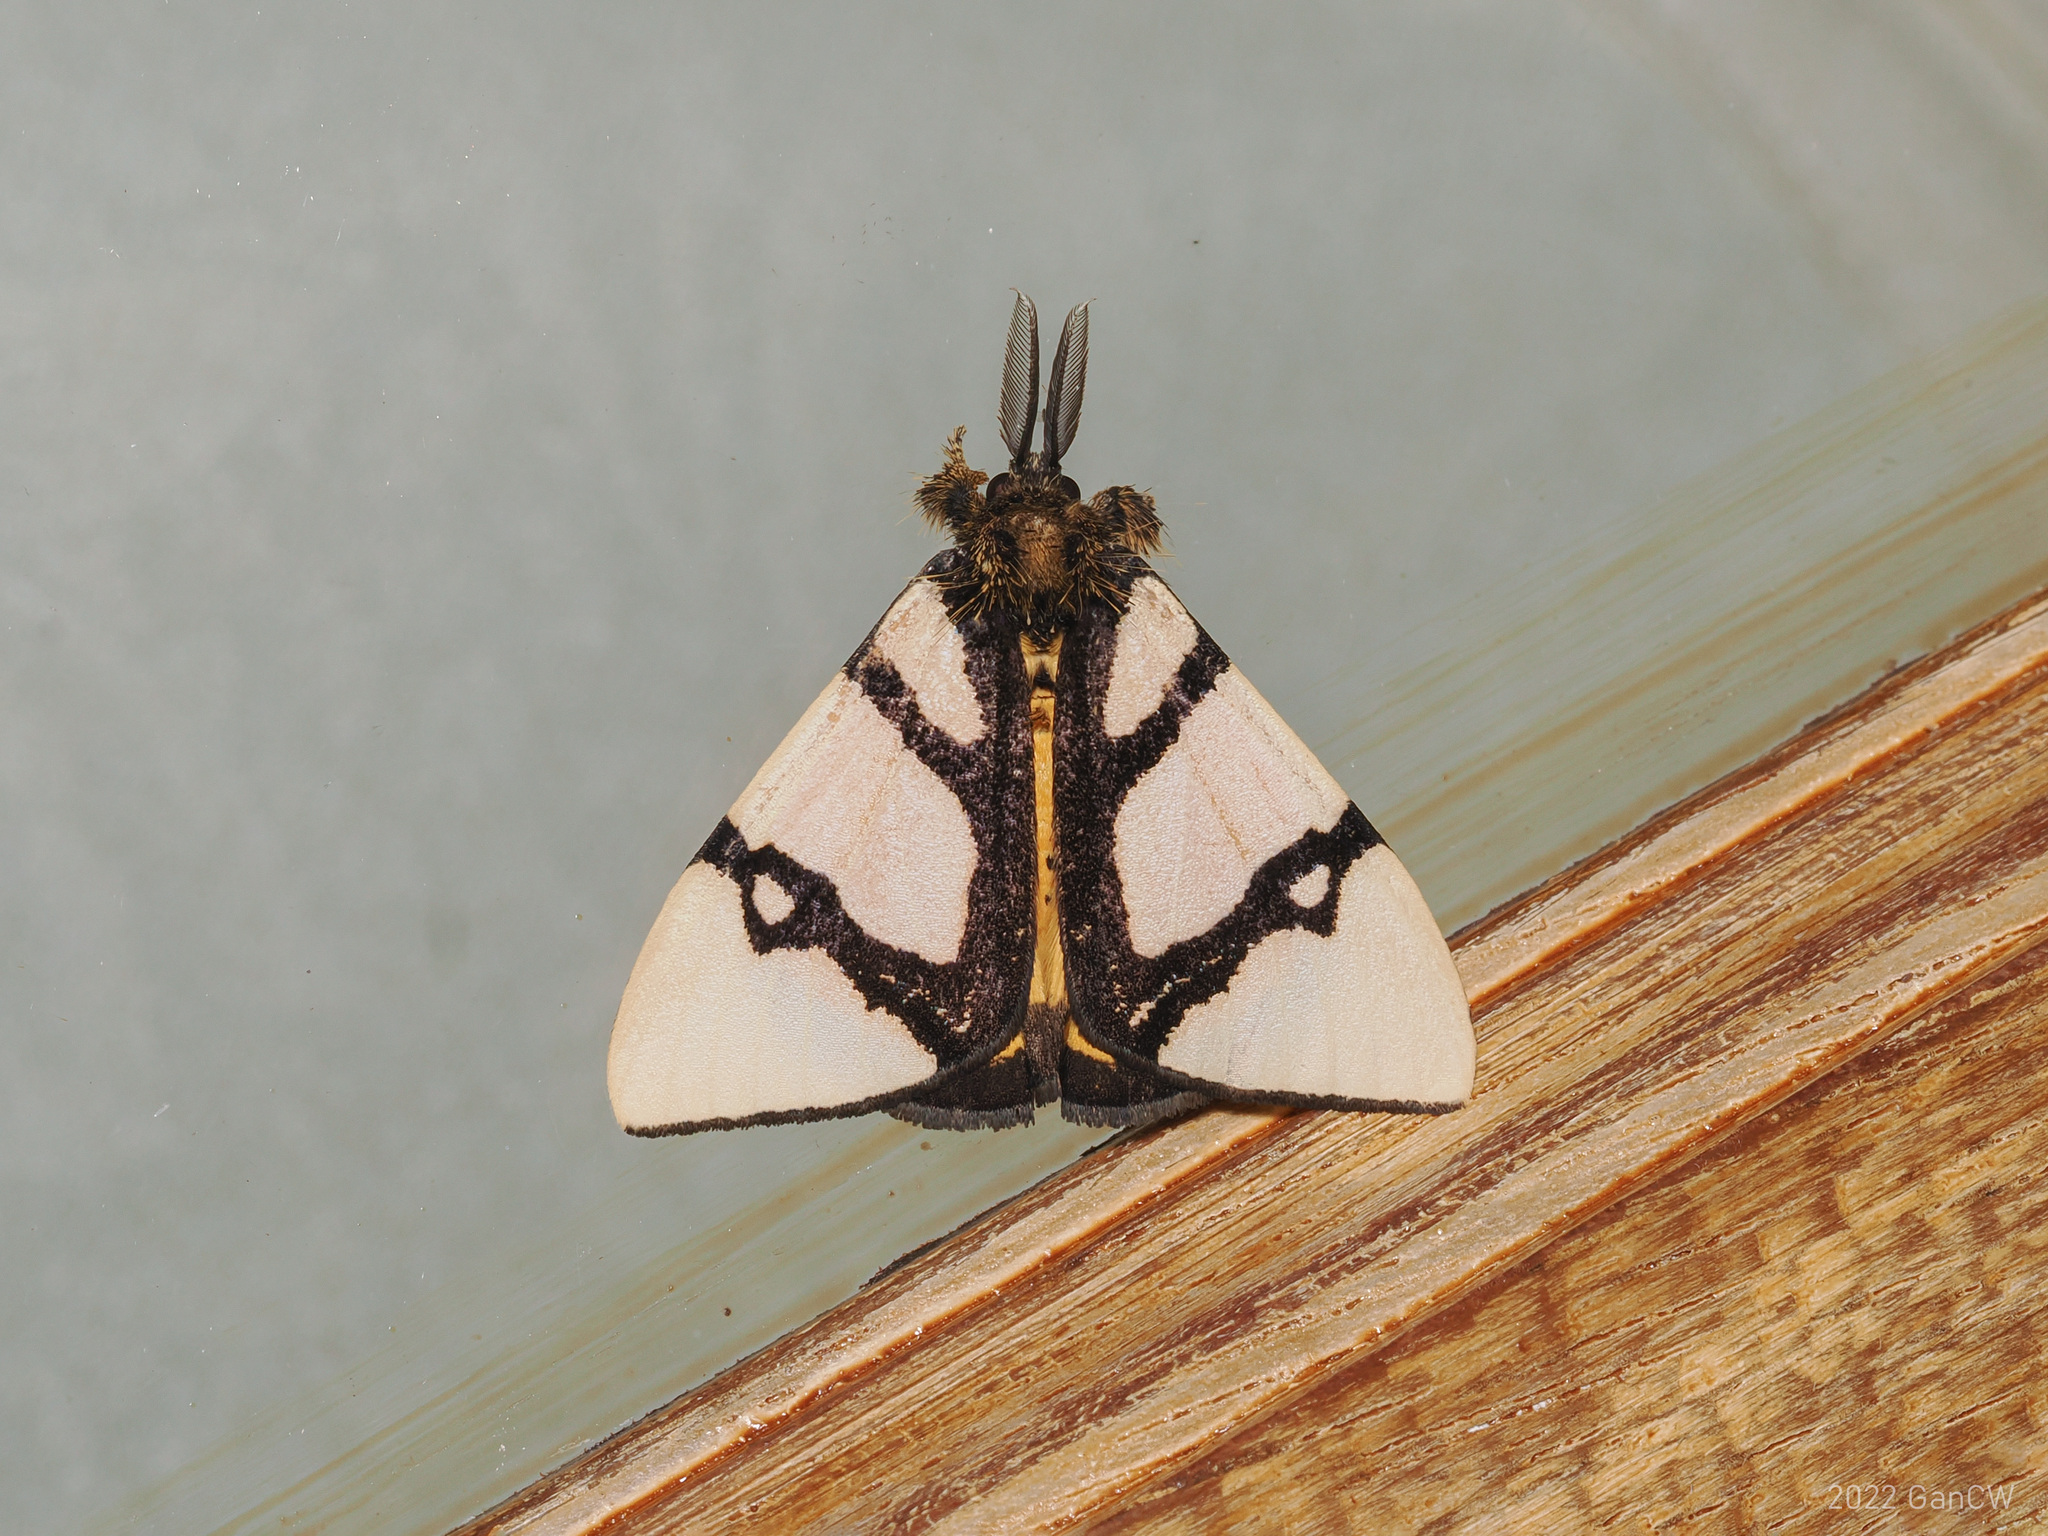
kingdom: Animalia
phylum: Arthropoda
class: Insecta
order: Lepidoptera
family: Erebidae
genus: Numenes
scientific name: Numenes contrahens
